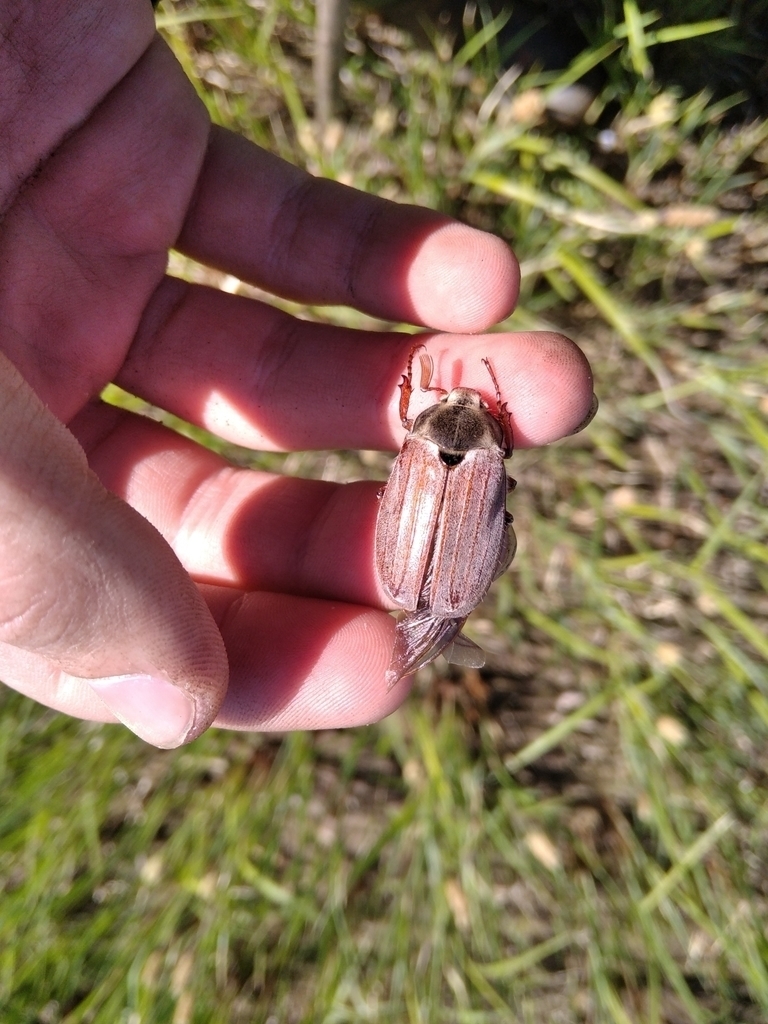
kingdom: Animalia
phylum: Arthropoda
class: Insecta
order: Coleoptera
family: Scarabaeidae
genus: Melolontha
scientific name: Melolontha melolontha
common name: Cockchafer maybeetle
